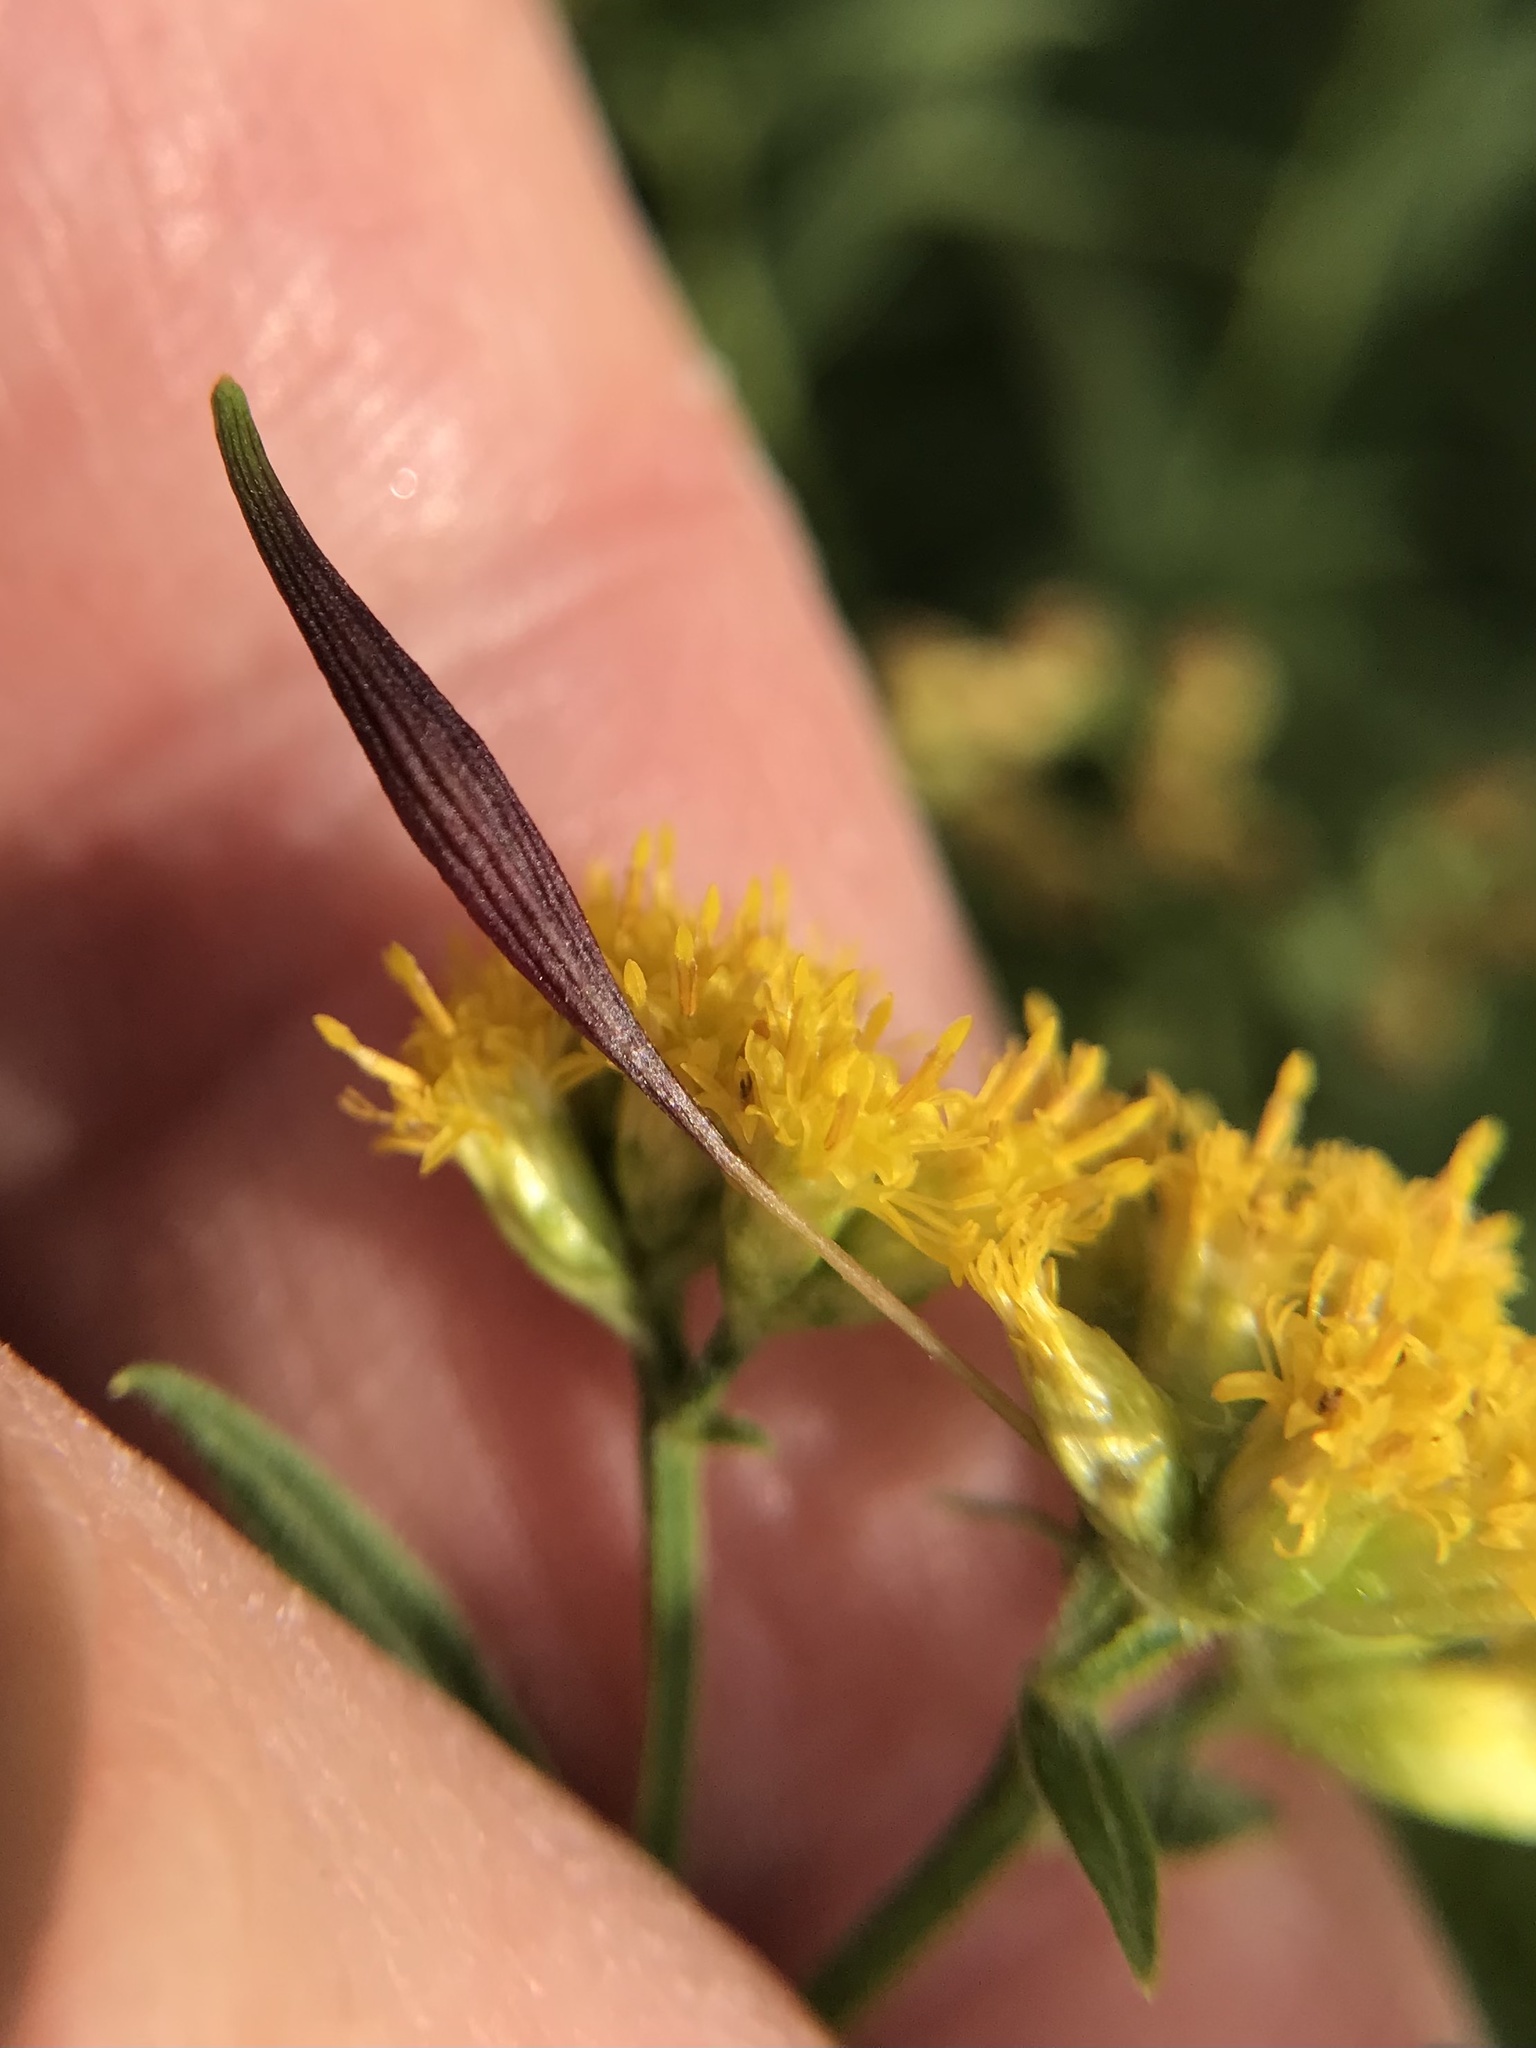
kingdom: Animalia
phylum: Arthropoda
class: Insecta
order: Diptera
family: Cecidomyiidae
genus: Rhopalomyia
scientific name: Rhopalomyia pedicellata
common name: Goldentop pedicellate gall midge
